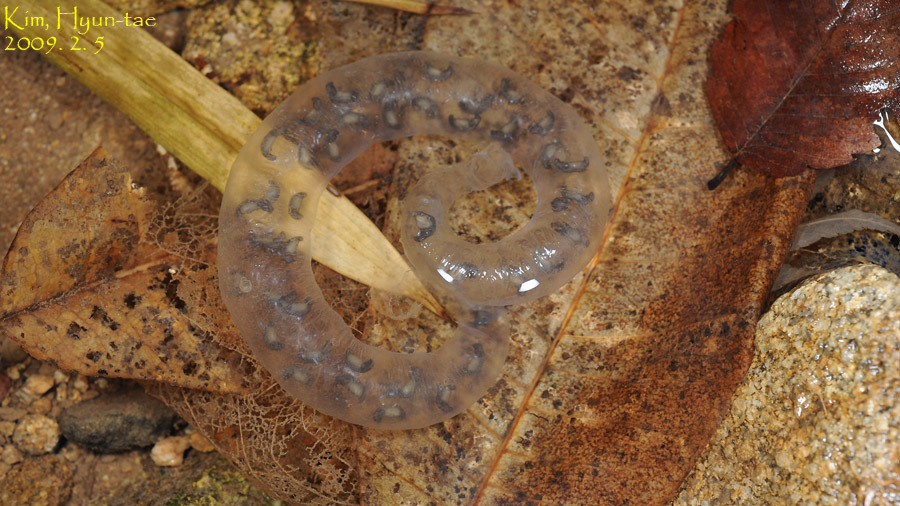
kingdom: Animalia
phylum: Chordata
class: Amphibia
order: Caudata
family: Hynobiidae
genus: Hynobius
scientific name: Hynobius leechii
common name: Gensan salamander
